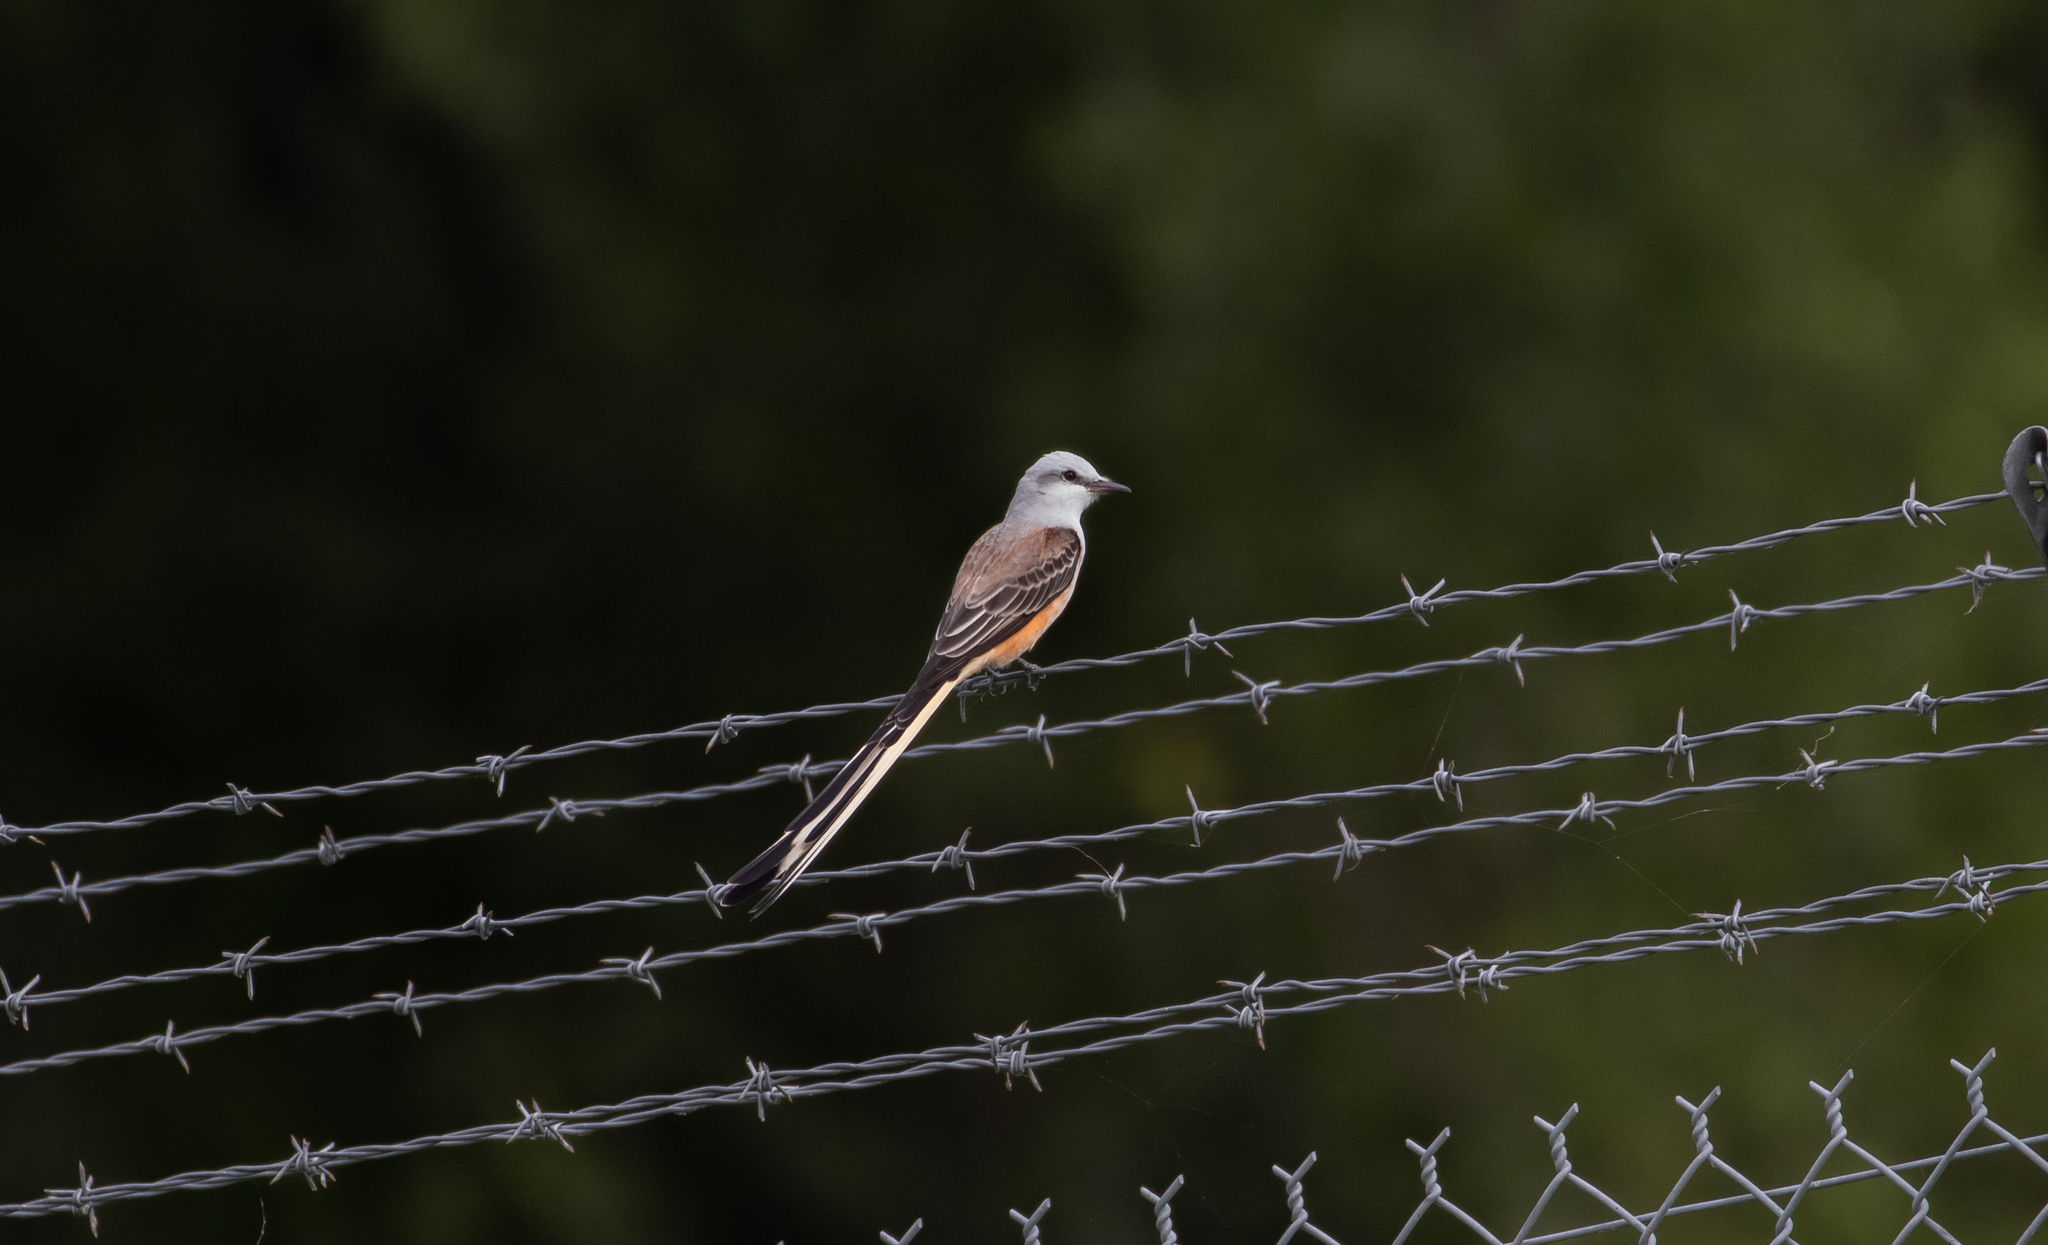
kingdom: Animalia
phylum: Chordata
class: Aves
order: Passeriformes
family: Tyrannidae
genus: Tyrannus
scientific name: Tyrannus forficatus
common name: Scissor-tailed flycatcher
